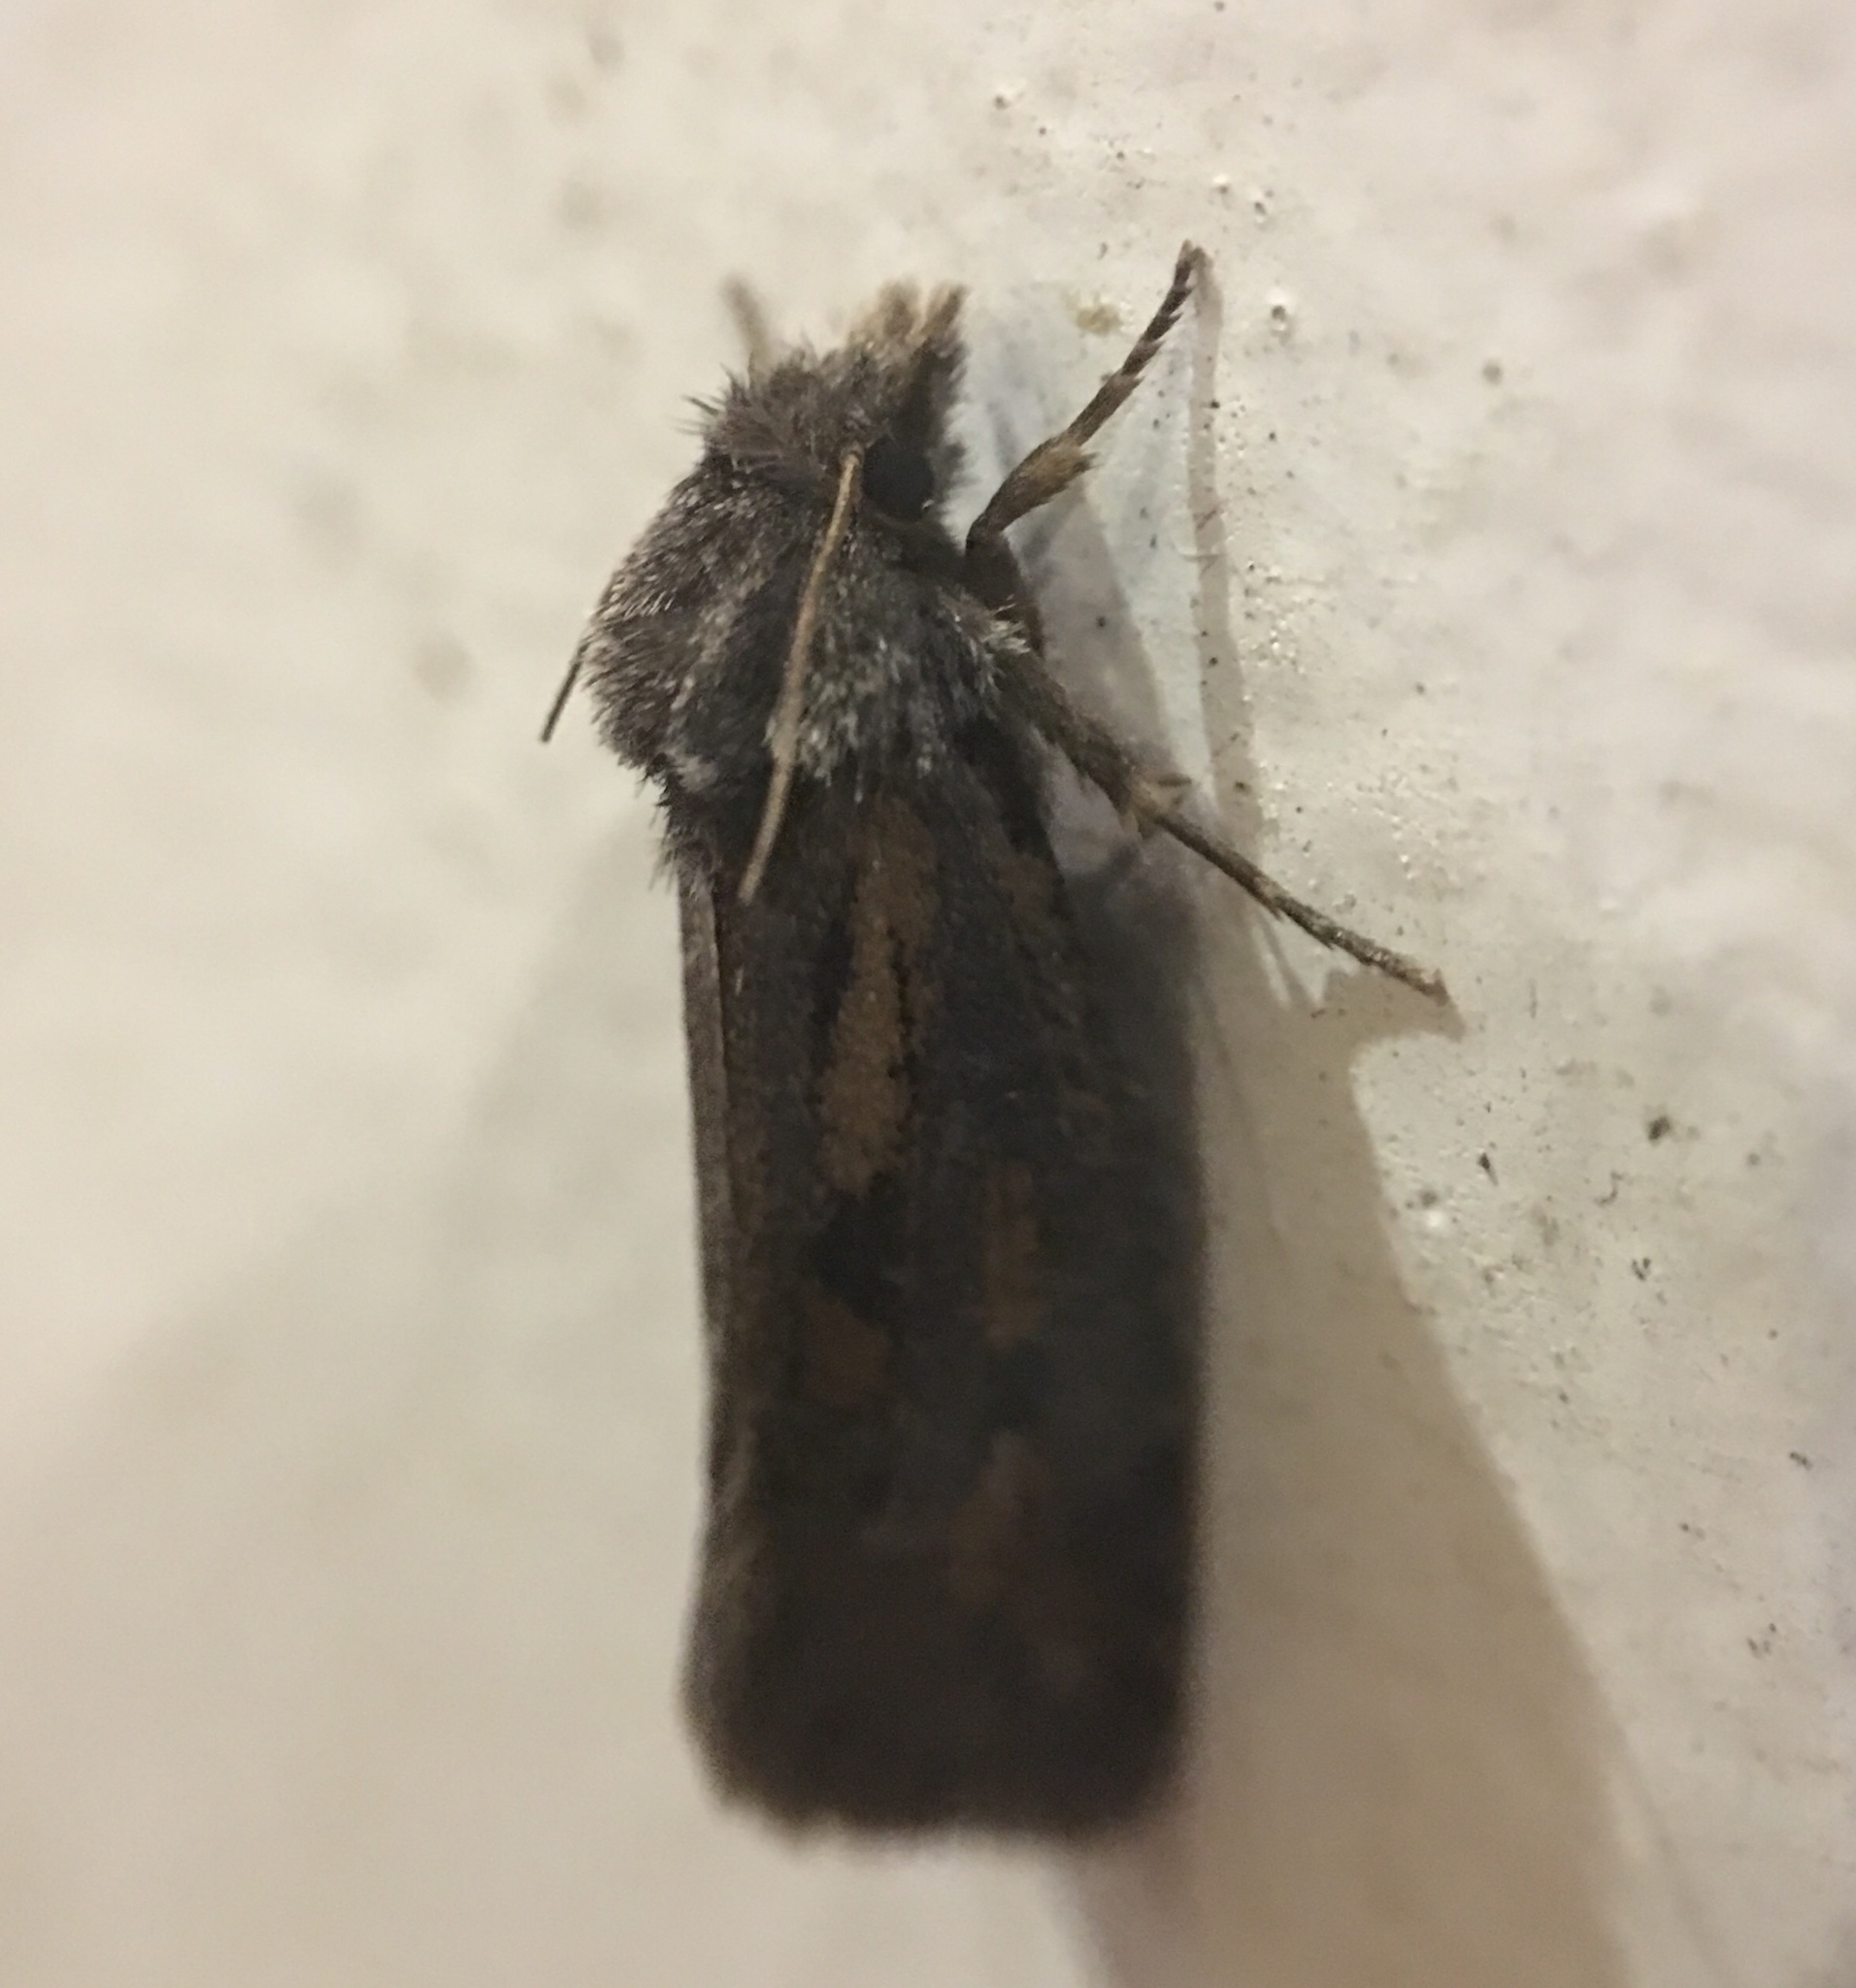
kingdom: Animalia
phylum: Arthropoda
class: Insecta
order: Lepidoptera
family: Tineidae
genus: Acrolophus
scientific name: Acrolophus popeanella
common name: Clemens' grass tubeworm moth
